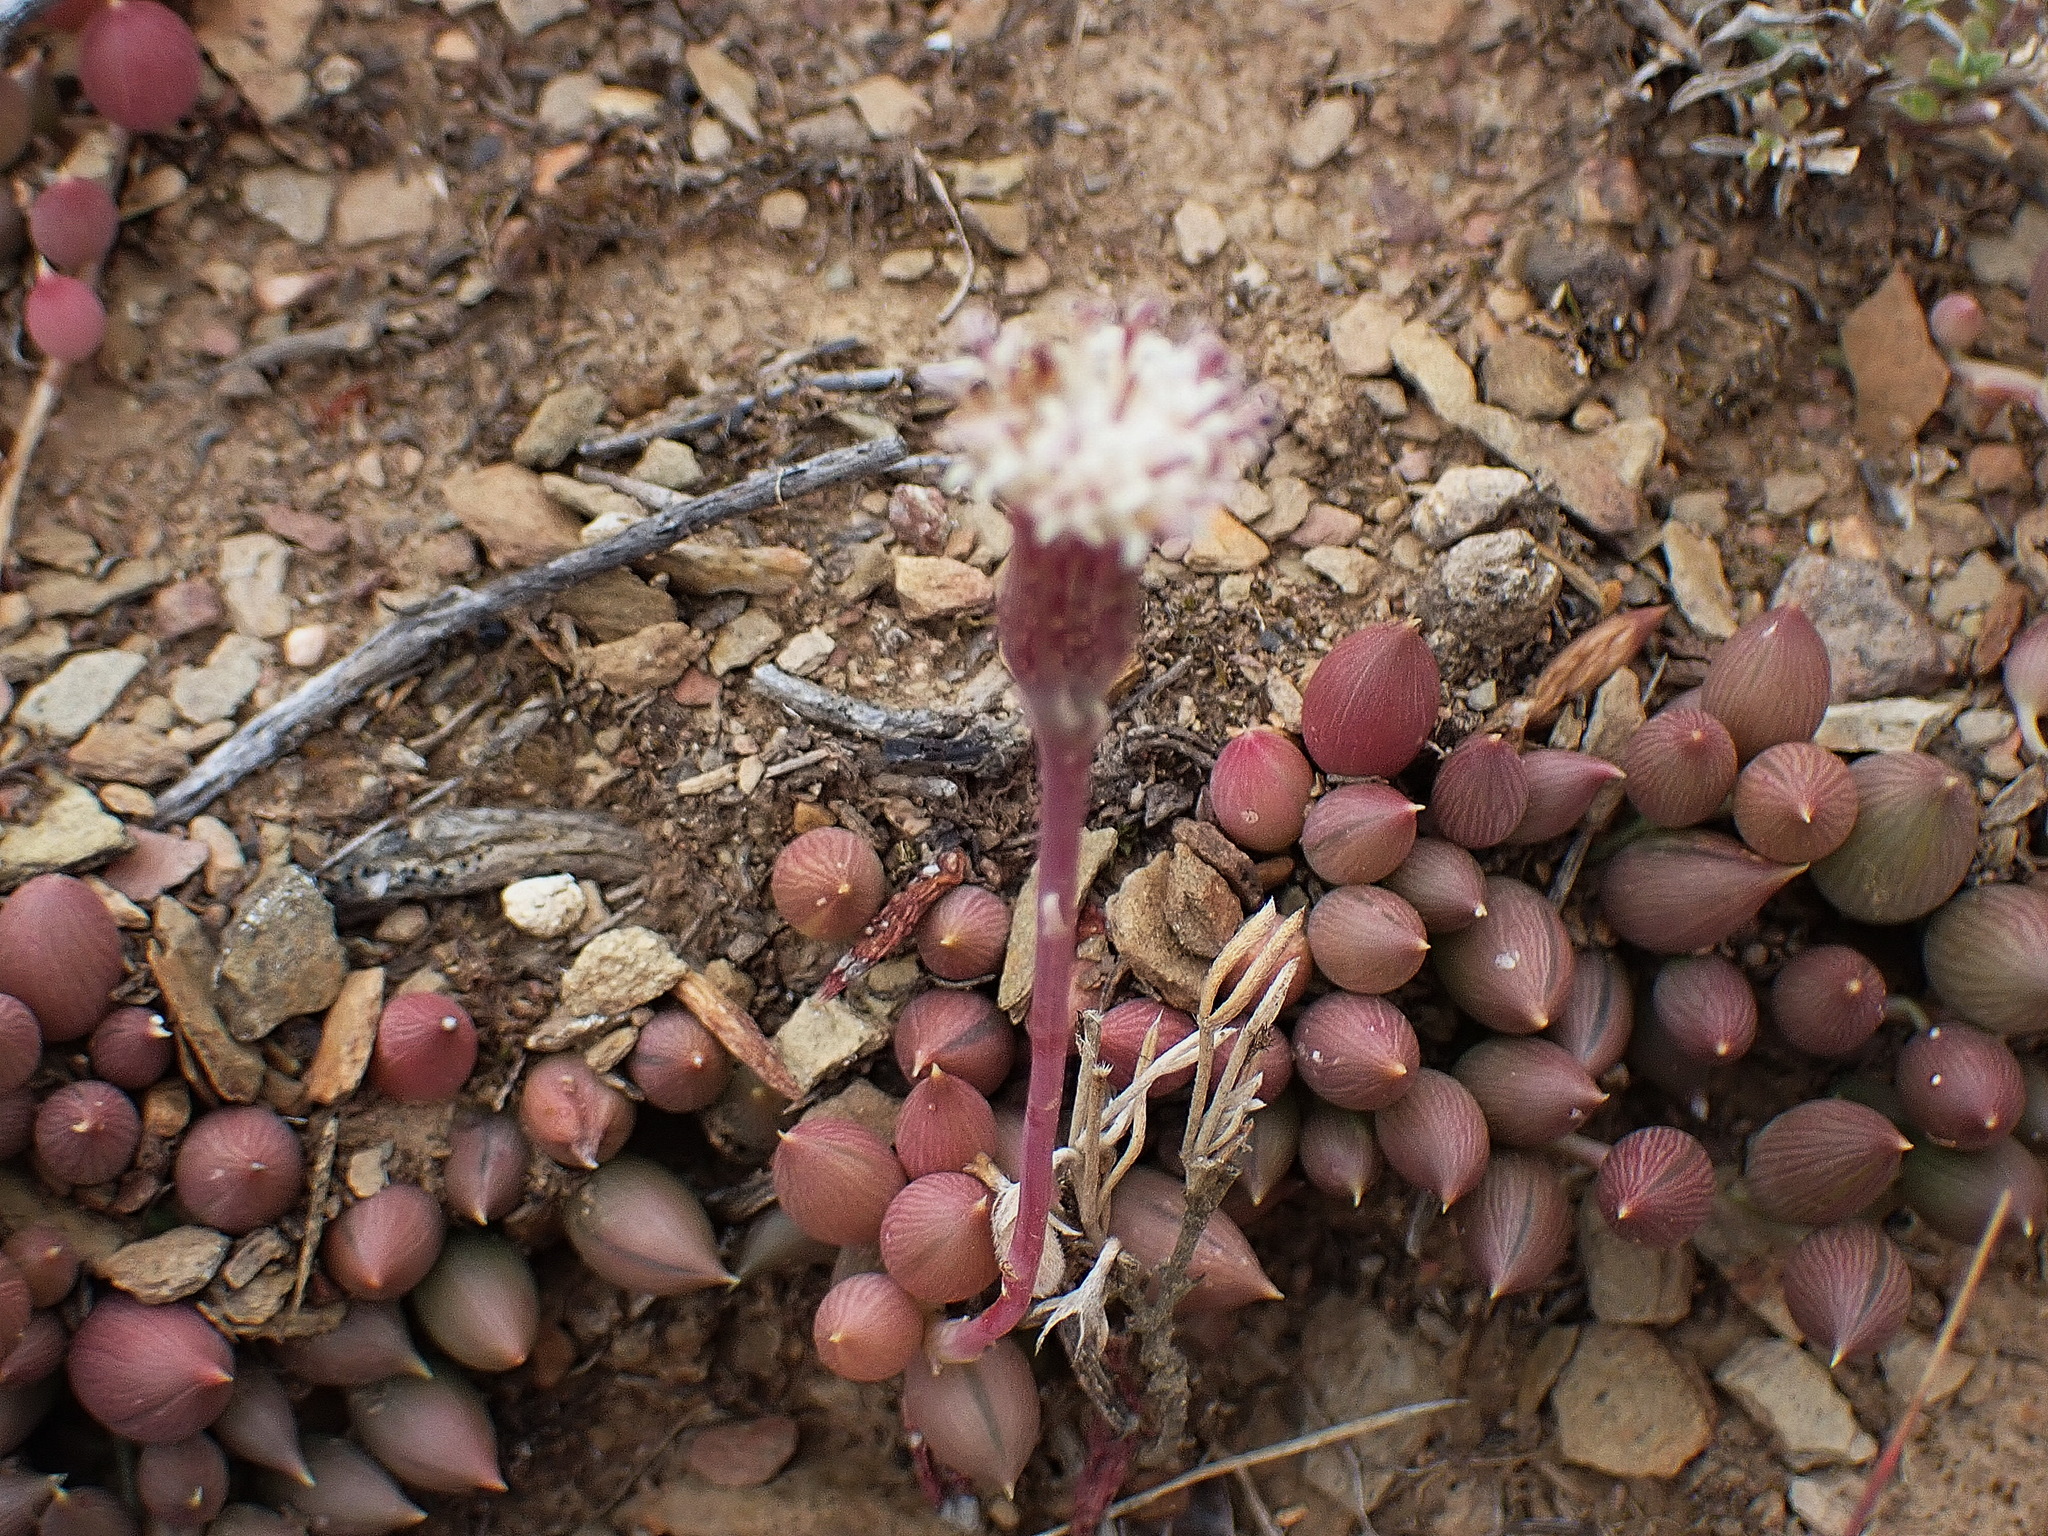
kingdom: Plantae
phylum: Tracheophyta
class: Magnoliopsida
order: Asterales
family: Asteraceae
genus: Curio
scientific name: Curio radicans
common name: Creeping-berry
